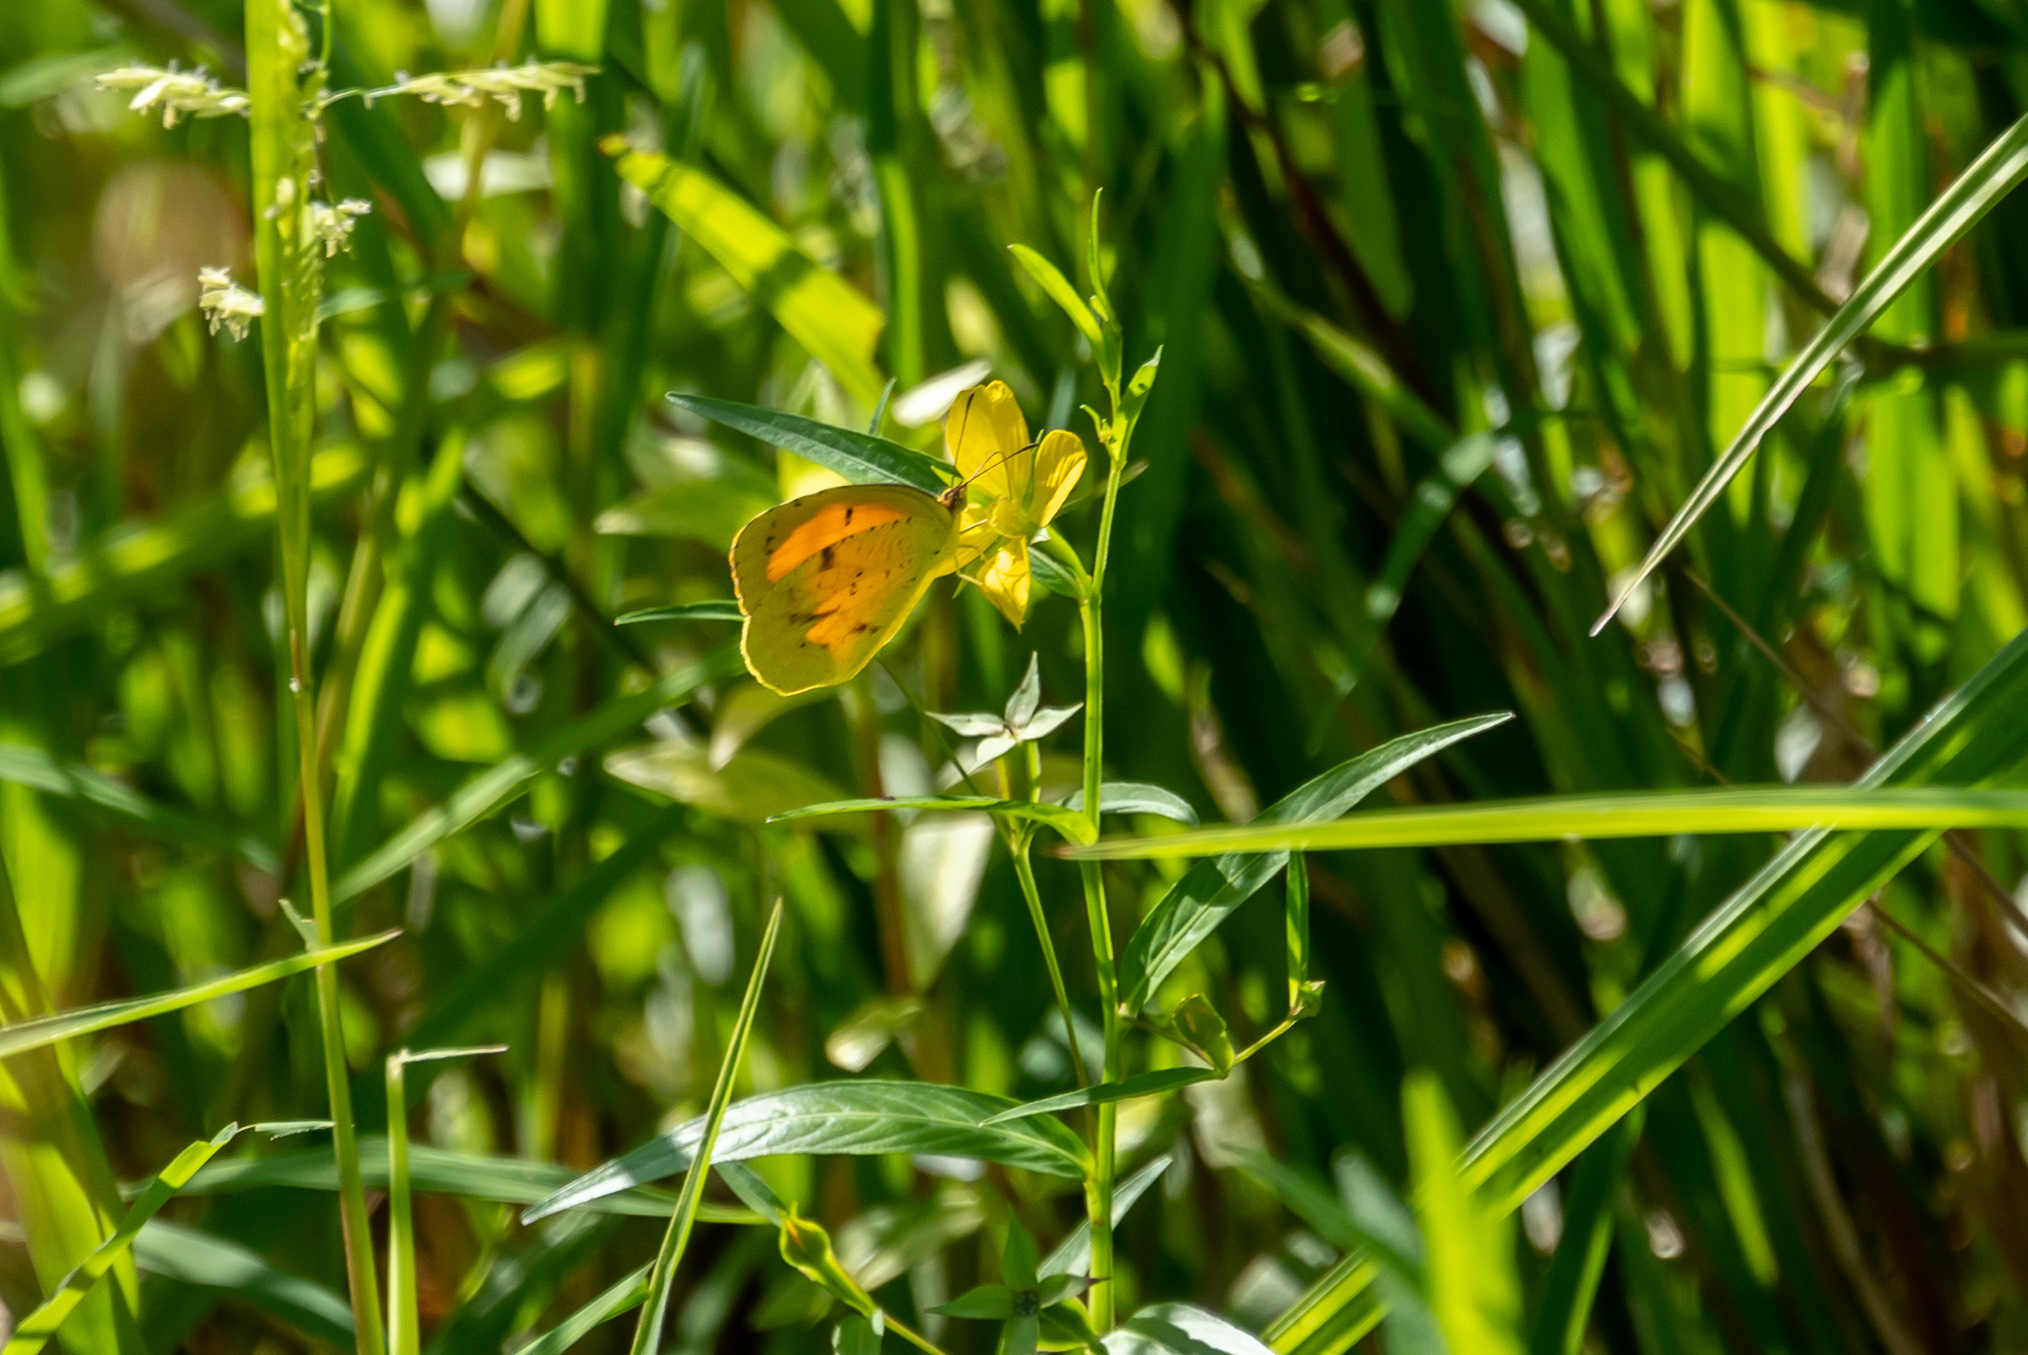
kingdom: Animalia
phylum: Arthropoda
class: Insecta
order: Lepidoptera
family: Pieridae
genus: Abaeis
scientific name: Abaeis nicippe
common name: Sleepy orange
